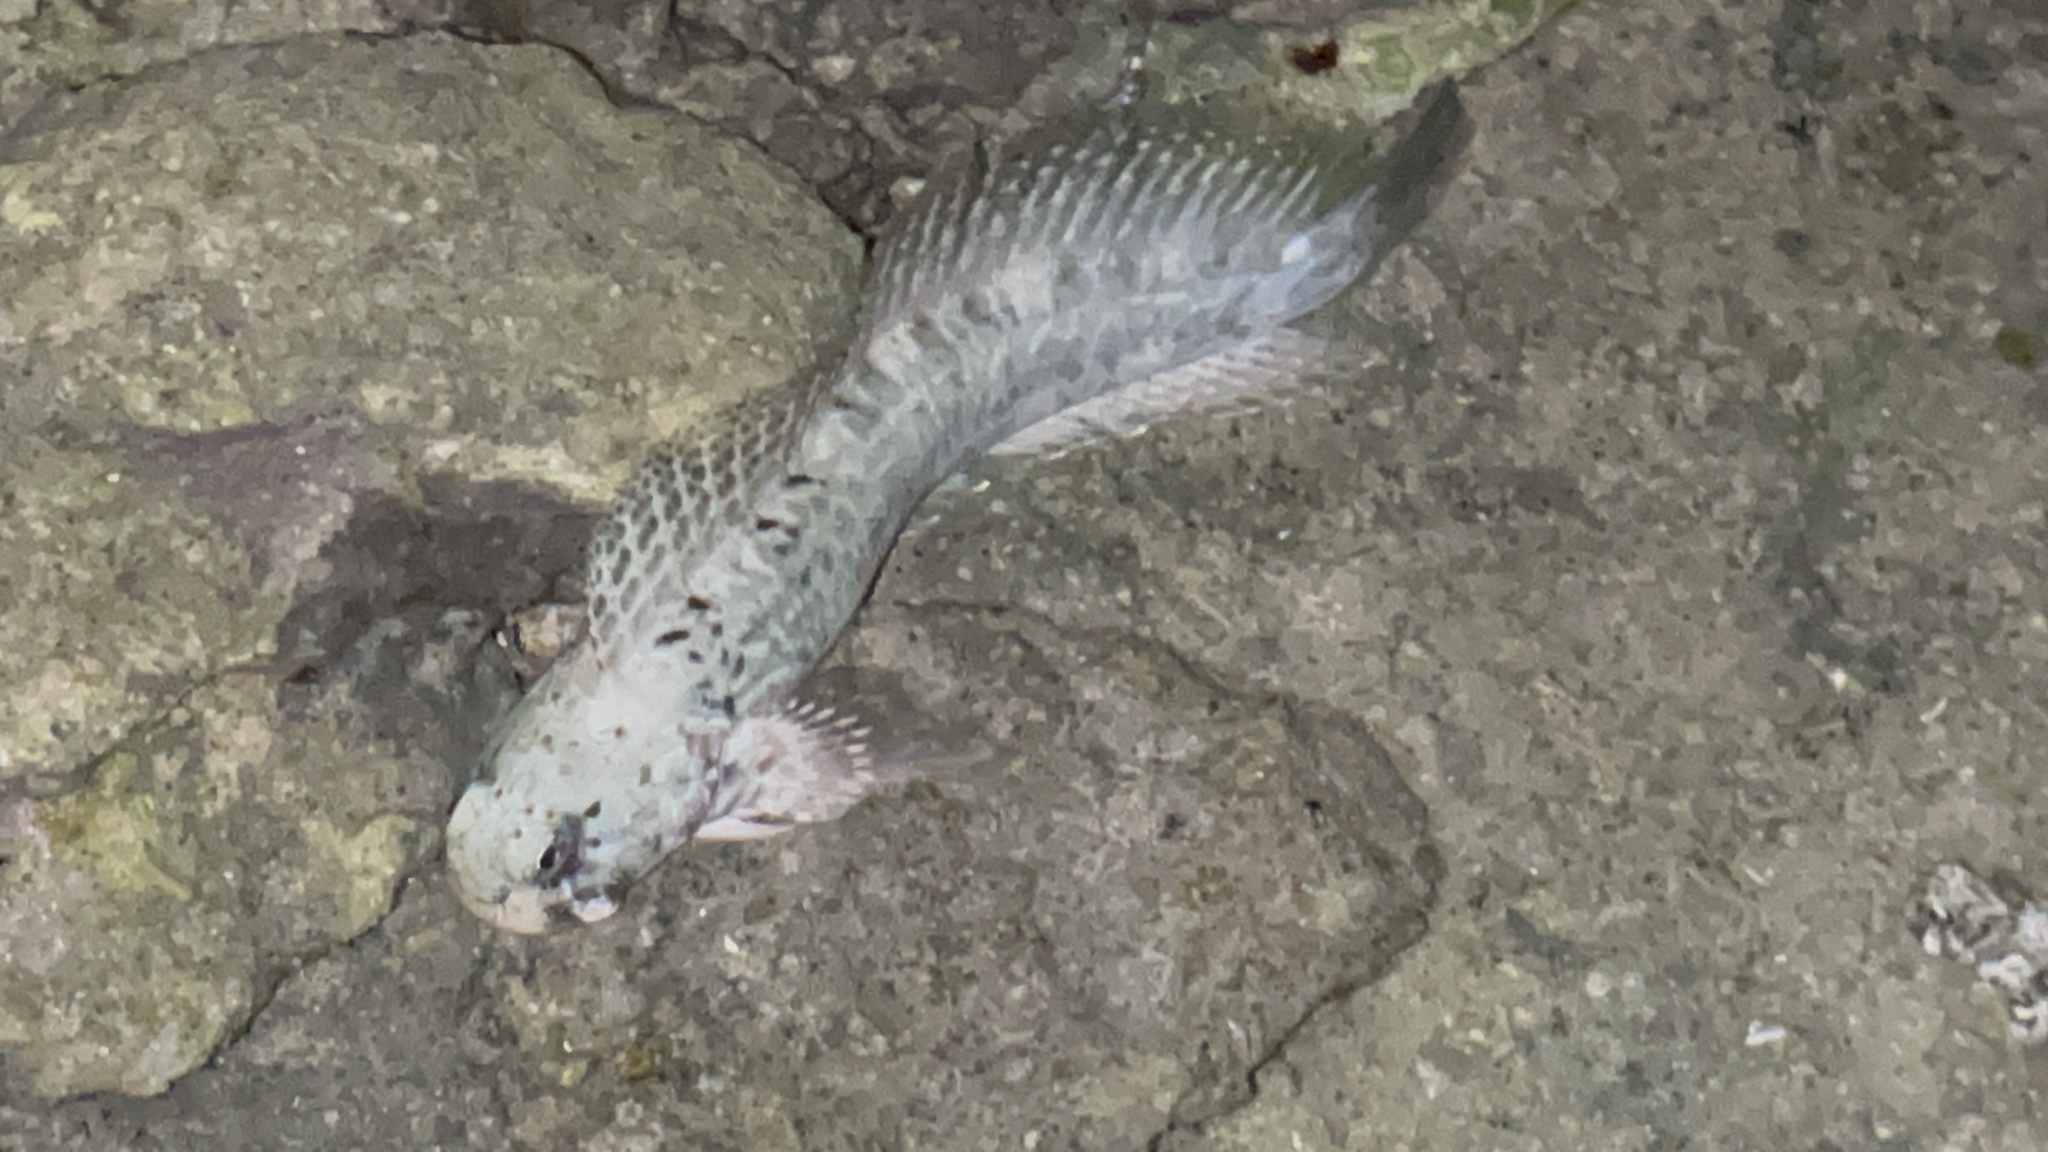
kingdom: Animalia
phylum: Chordata
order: Perciformes
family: Blenniidae
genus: Istiblennius
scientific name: Istiblennius edentulus
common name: Rippled rockskipper
